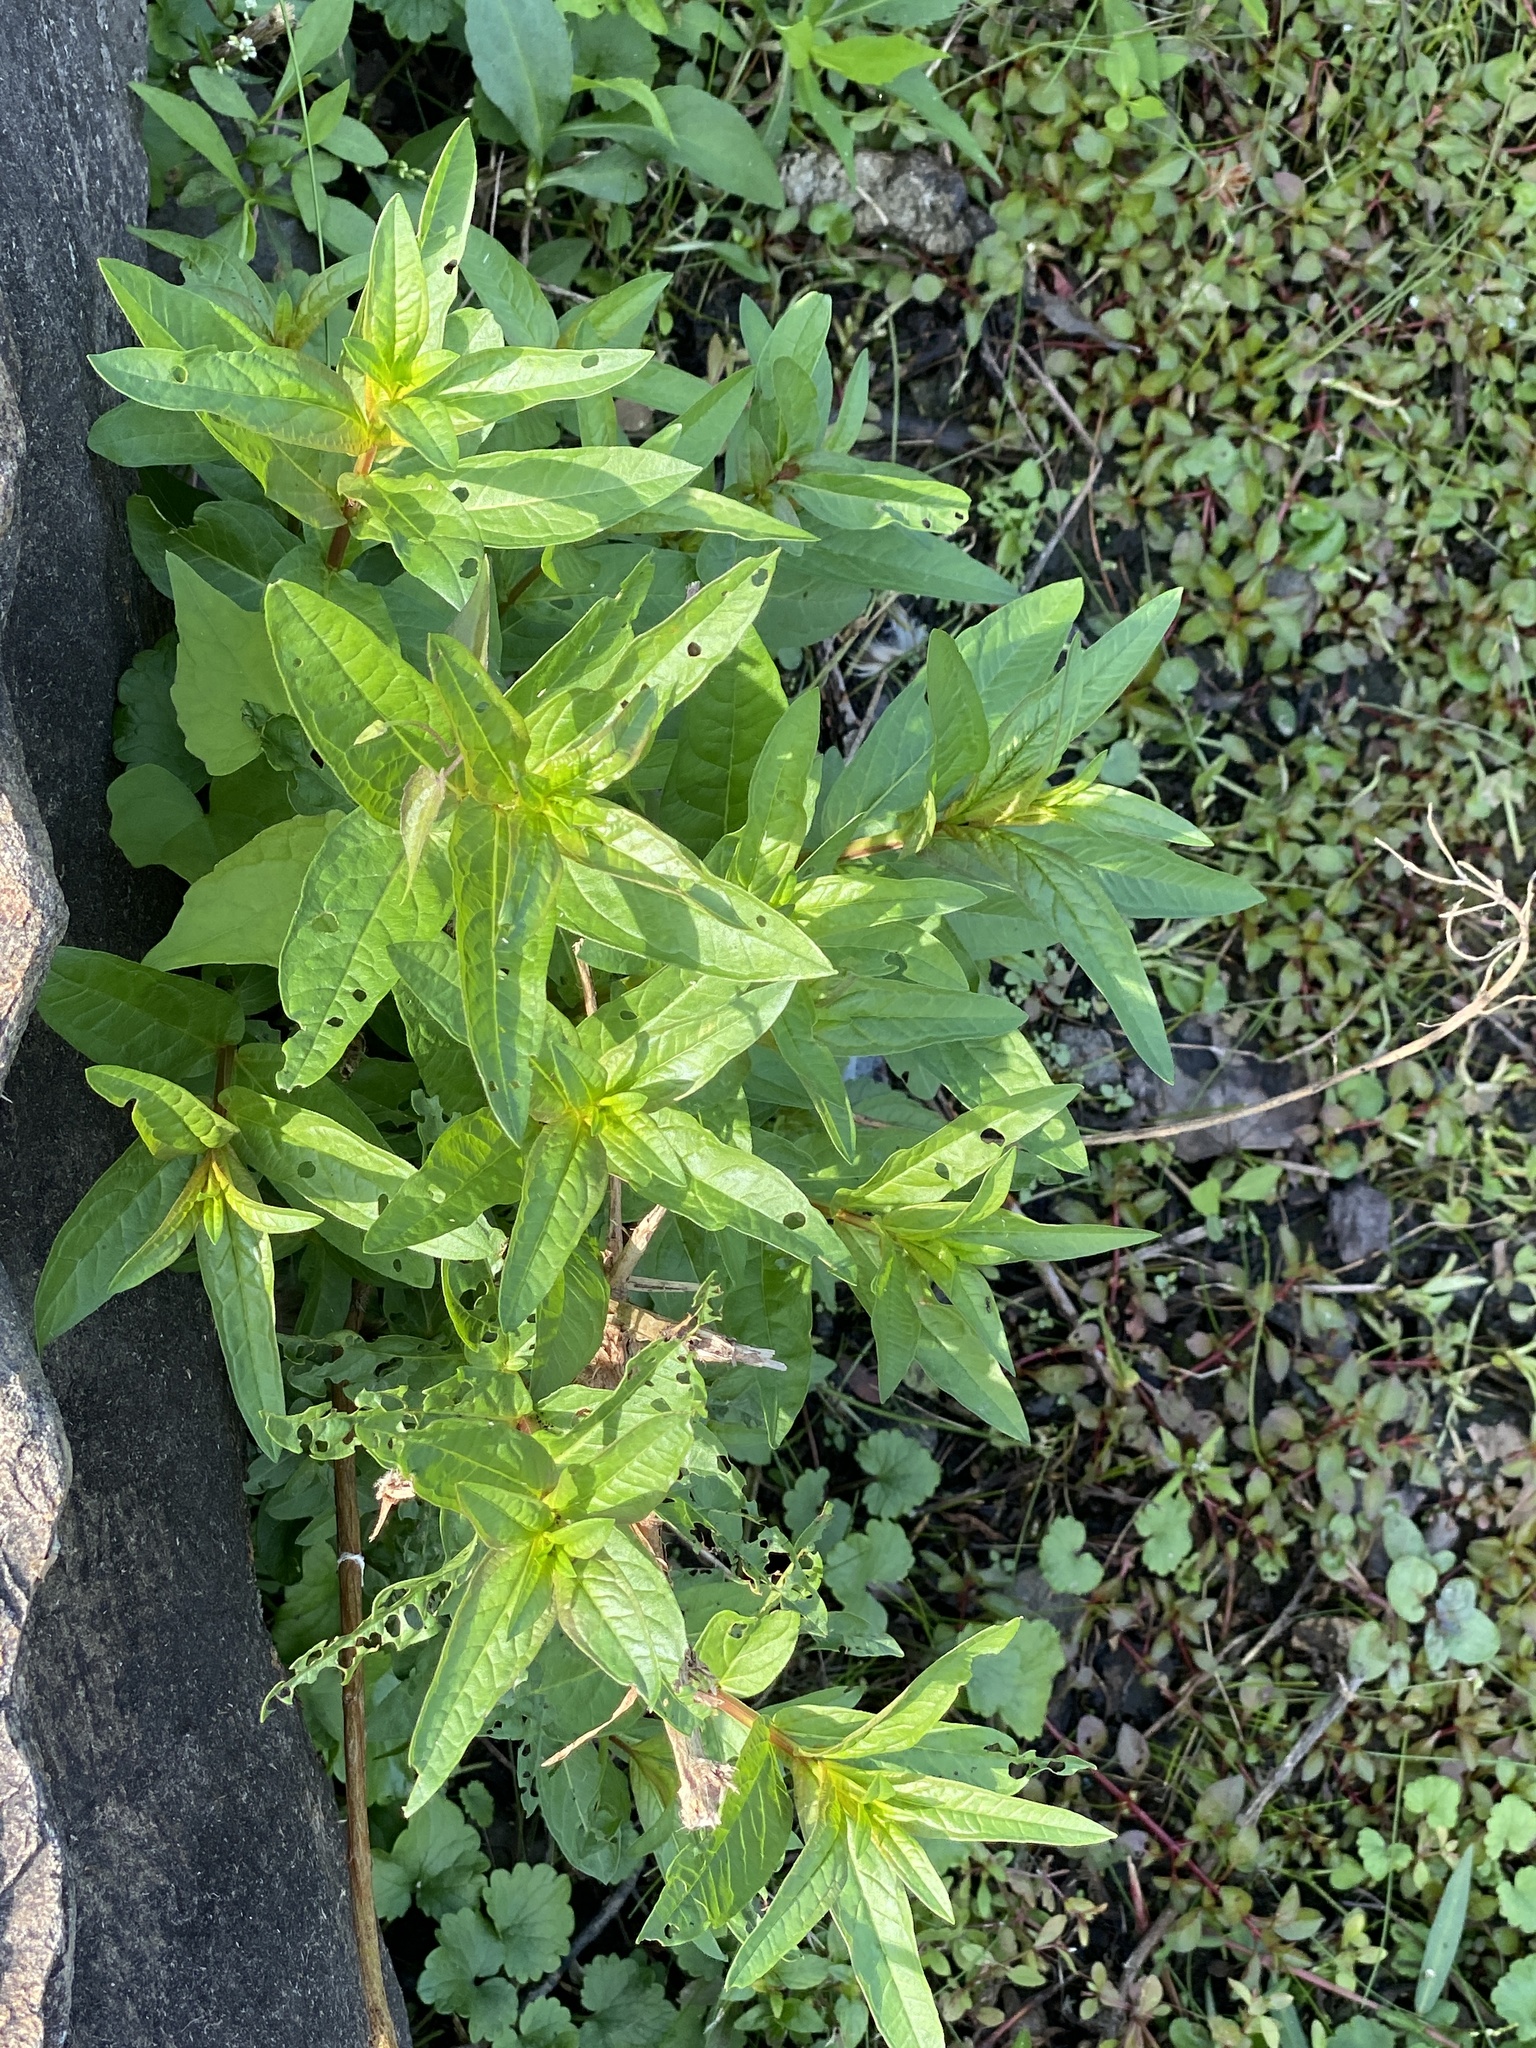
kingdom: Plantae
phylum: Tracheophyta
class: Magnoliopsida
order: Myrtales
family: Lythraceae
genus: Lythrum
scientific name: Lythrum salicaria
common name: Purple loosestrife
